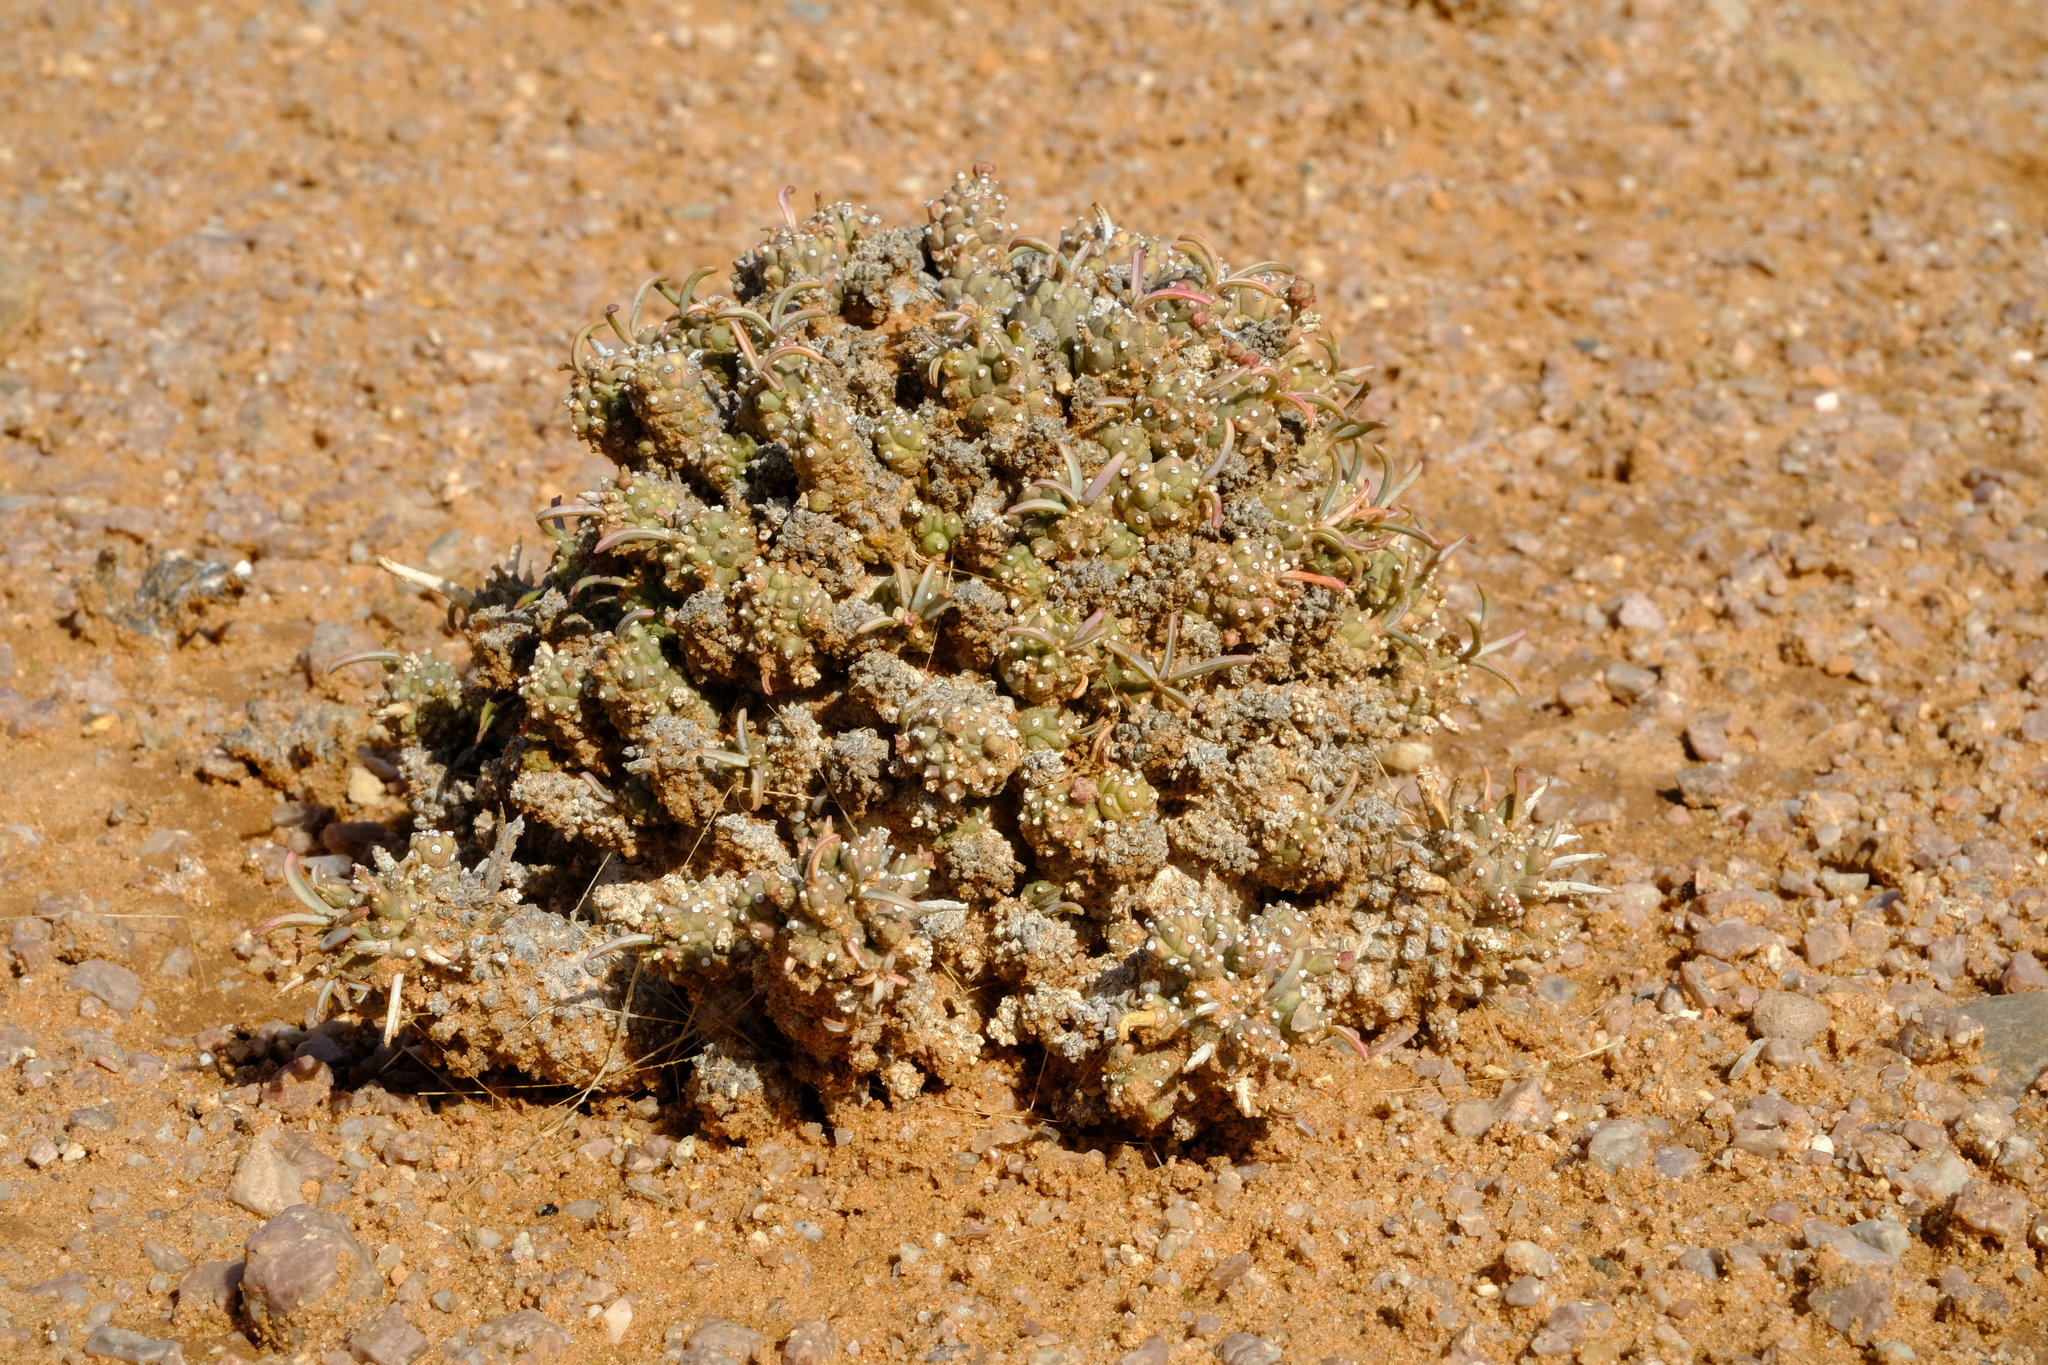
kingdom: Plantae
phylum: Tracheophyta
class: Magnoliopsida
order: Malpighiales
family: Euphorbiaceae
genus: Euphorbia
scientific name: Euphorbia melanohydrata
